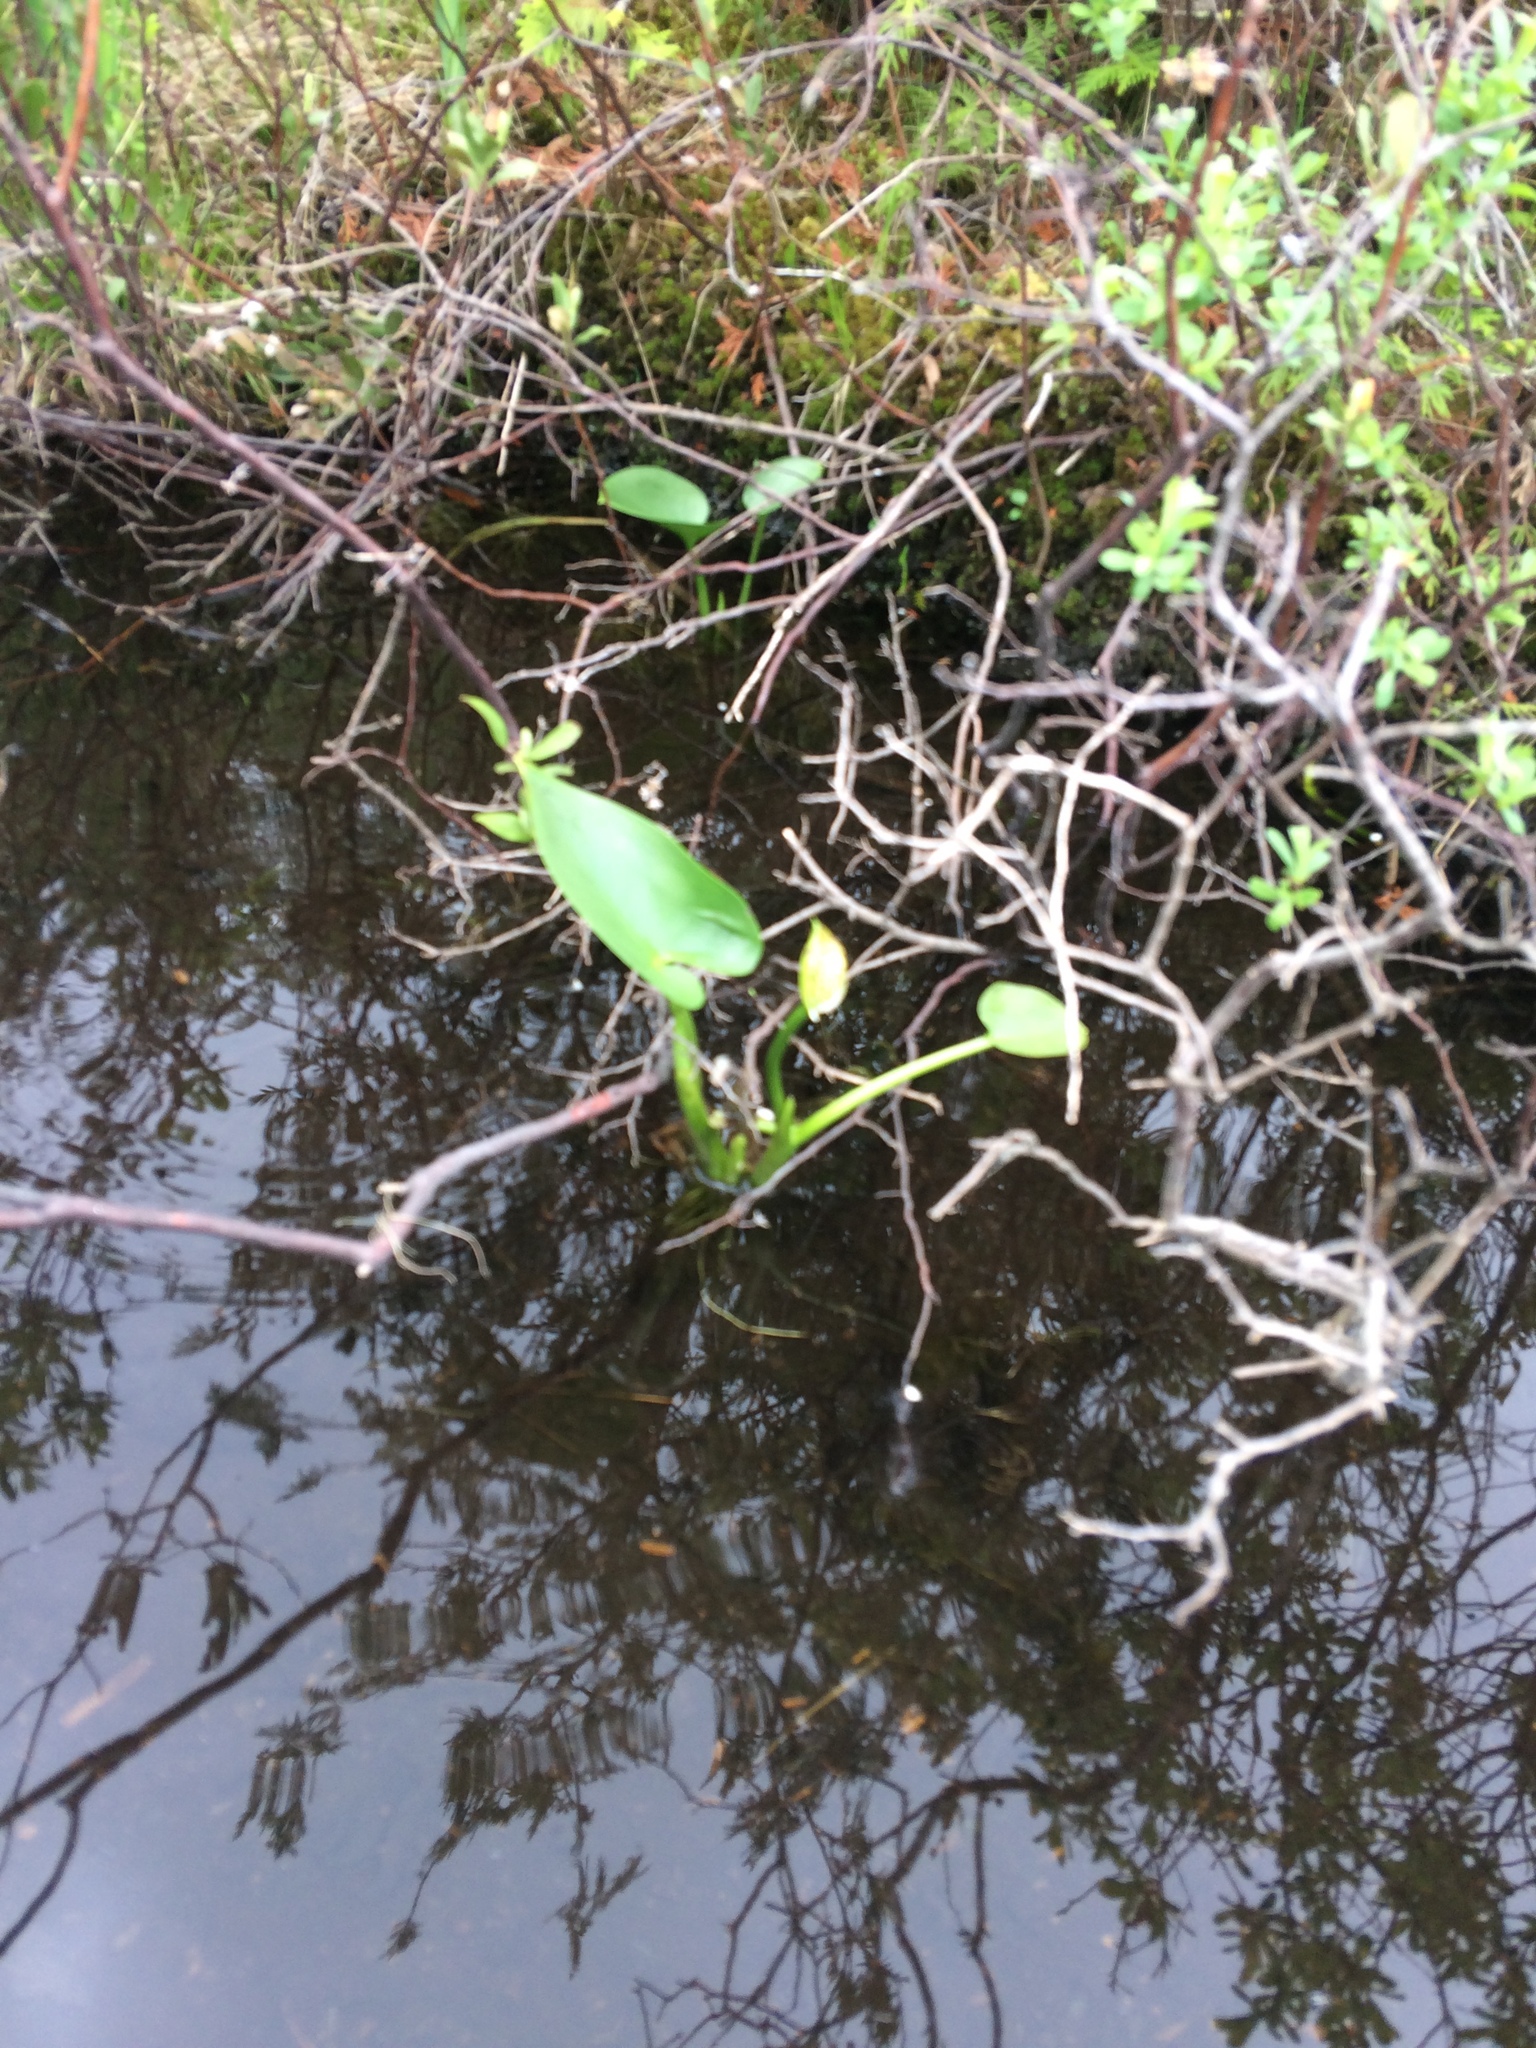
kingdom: Plantae
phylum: Tracheophyta
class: Liliopsida
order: Alismatales
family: Araceae
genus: Calla
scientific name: Calla palustris
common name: Bog arum
